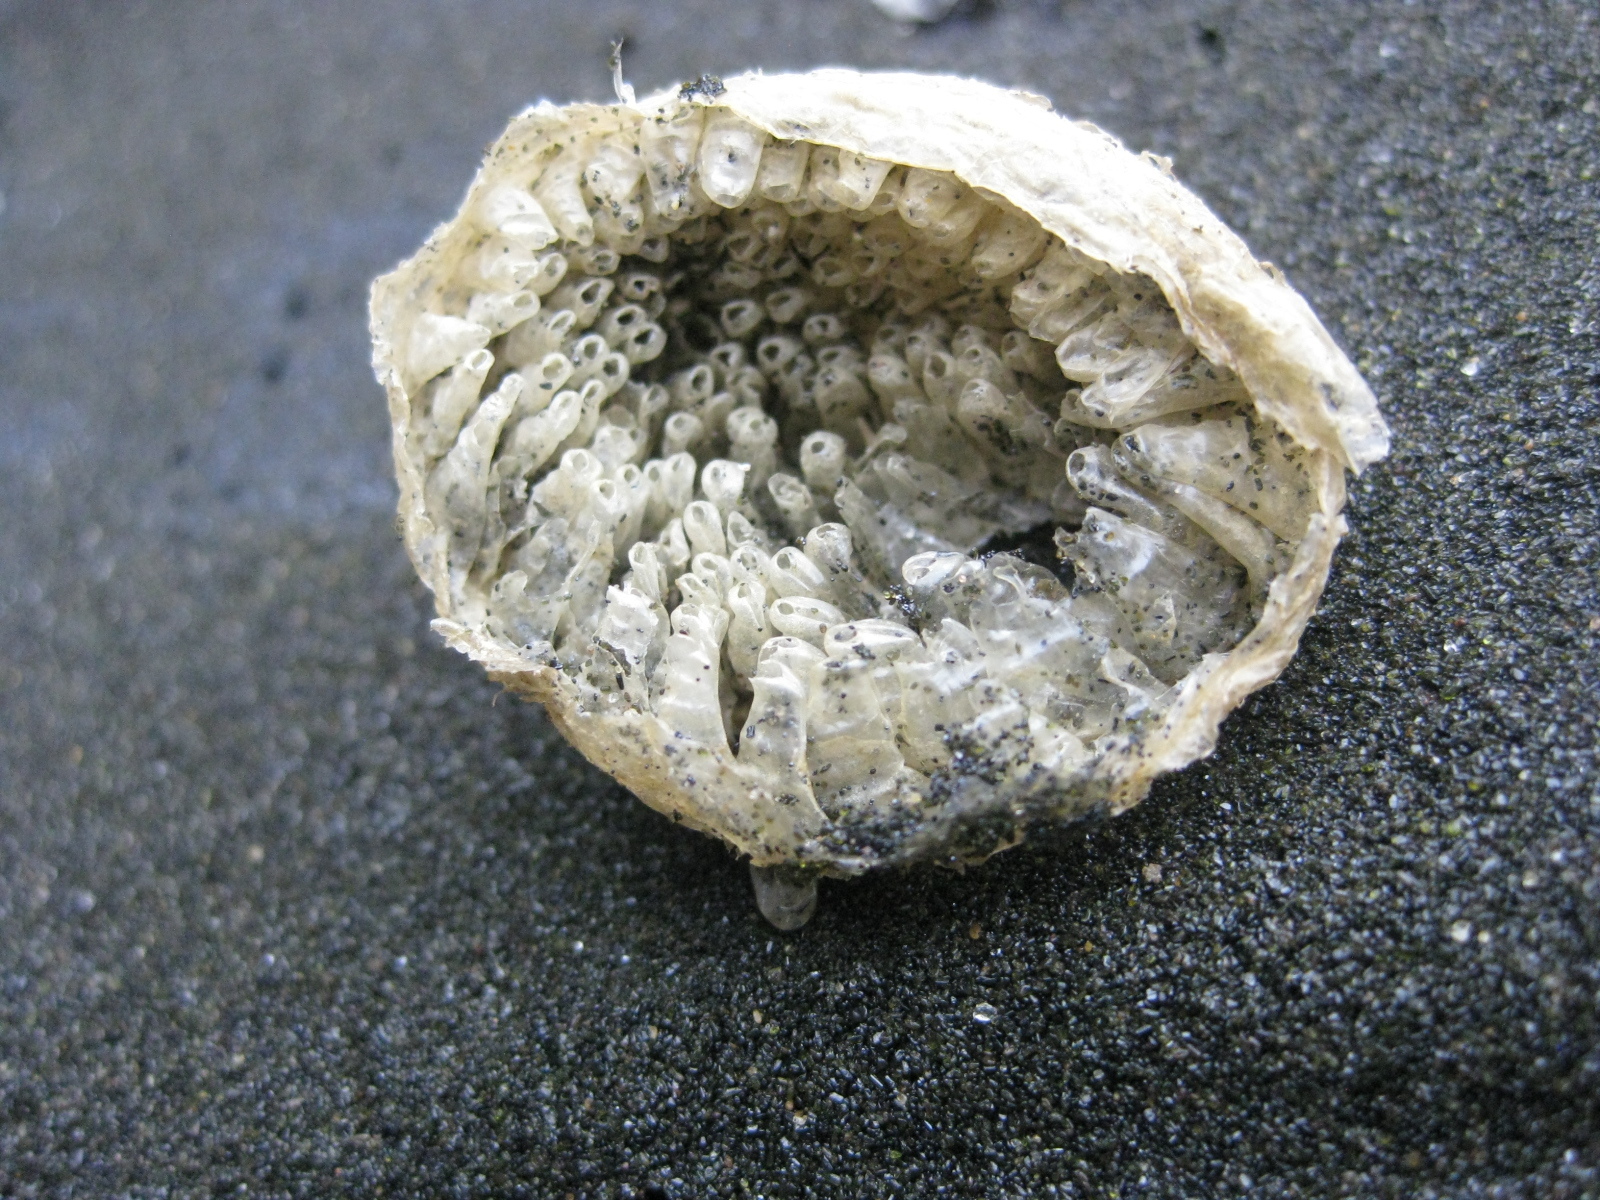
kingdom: Animalia
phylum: Mollusca
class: Gastropoda
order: Littorinimorpha
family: Cymatiidae
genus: Cabestana
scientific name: Cabestana spengleri
